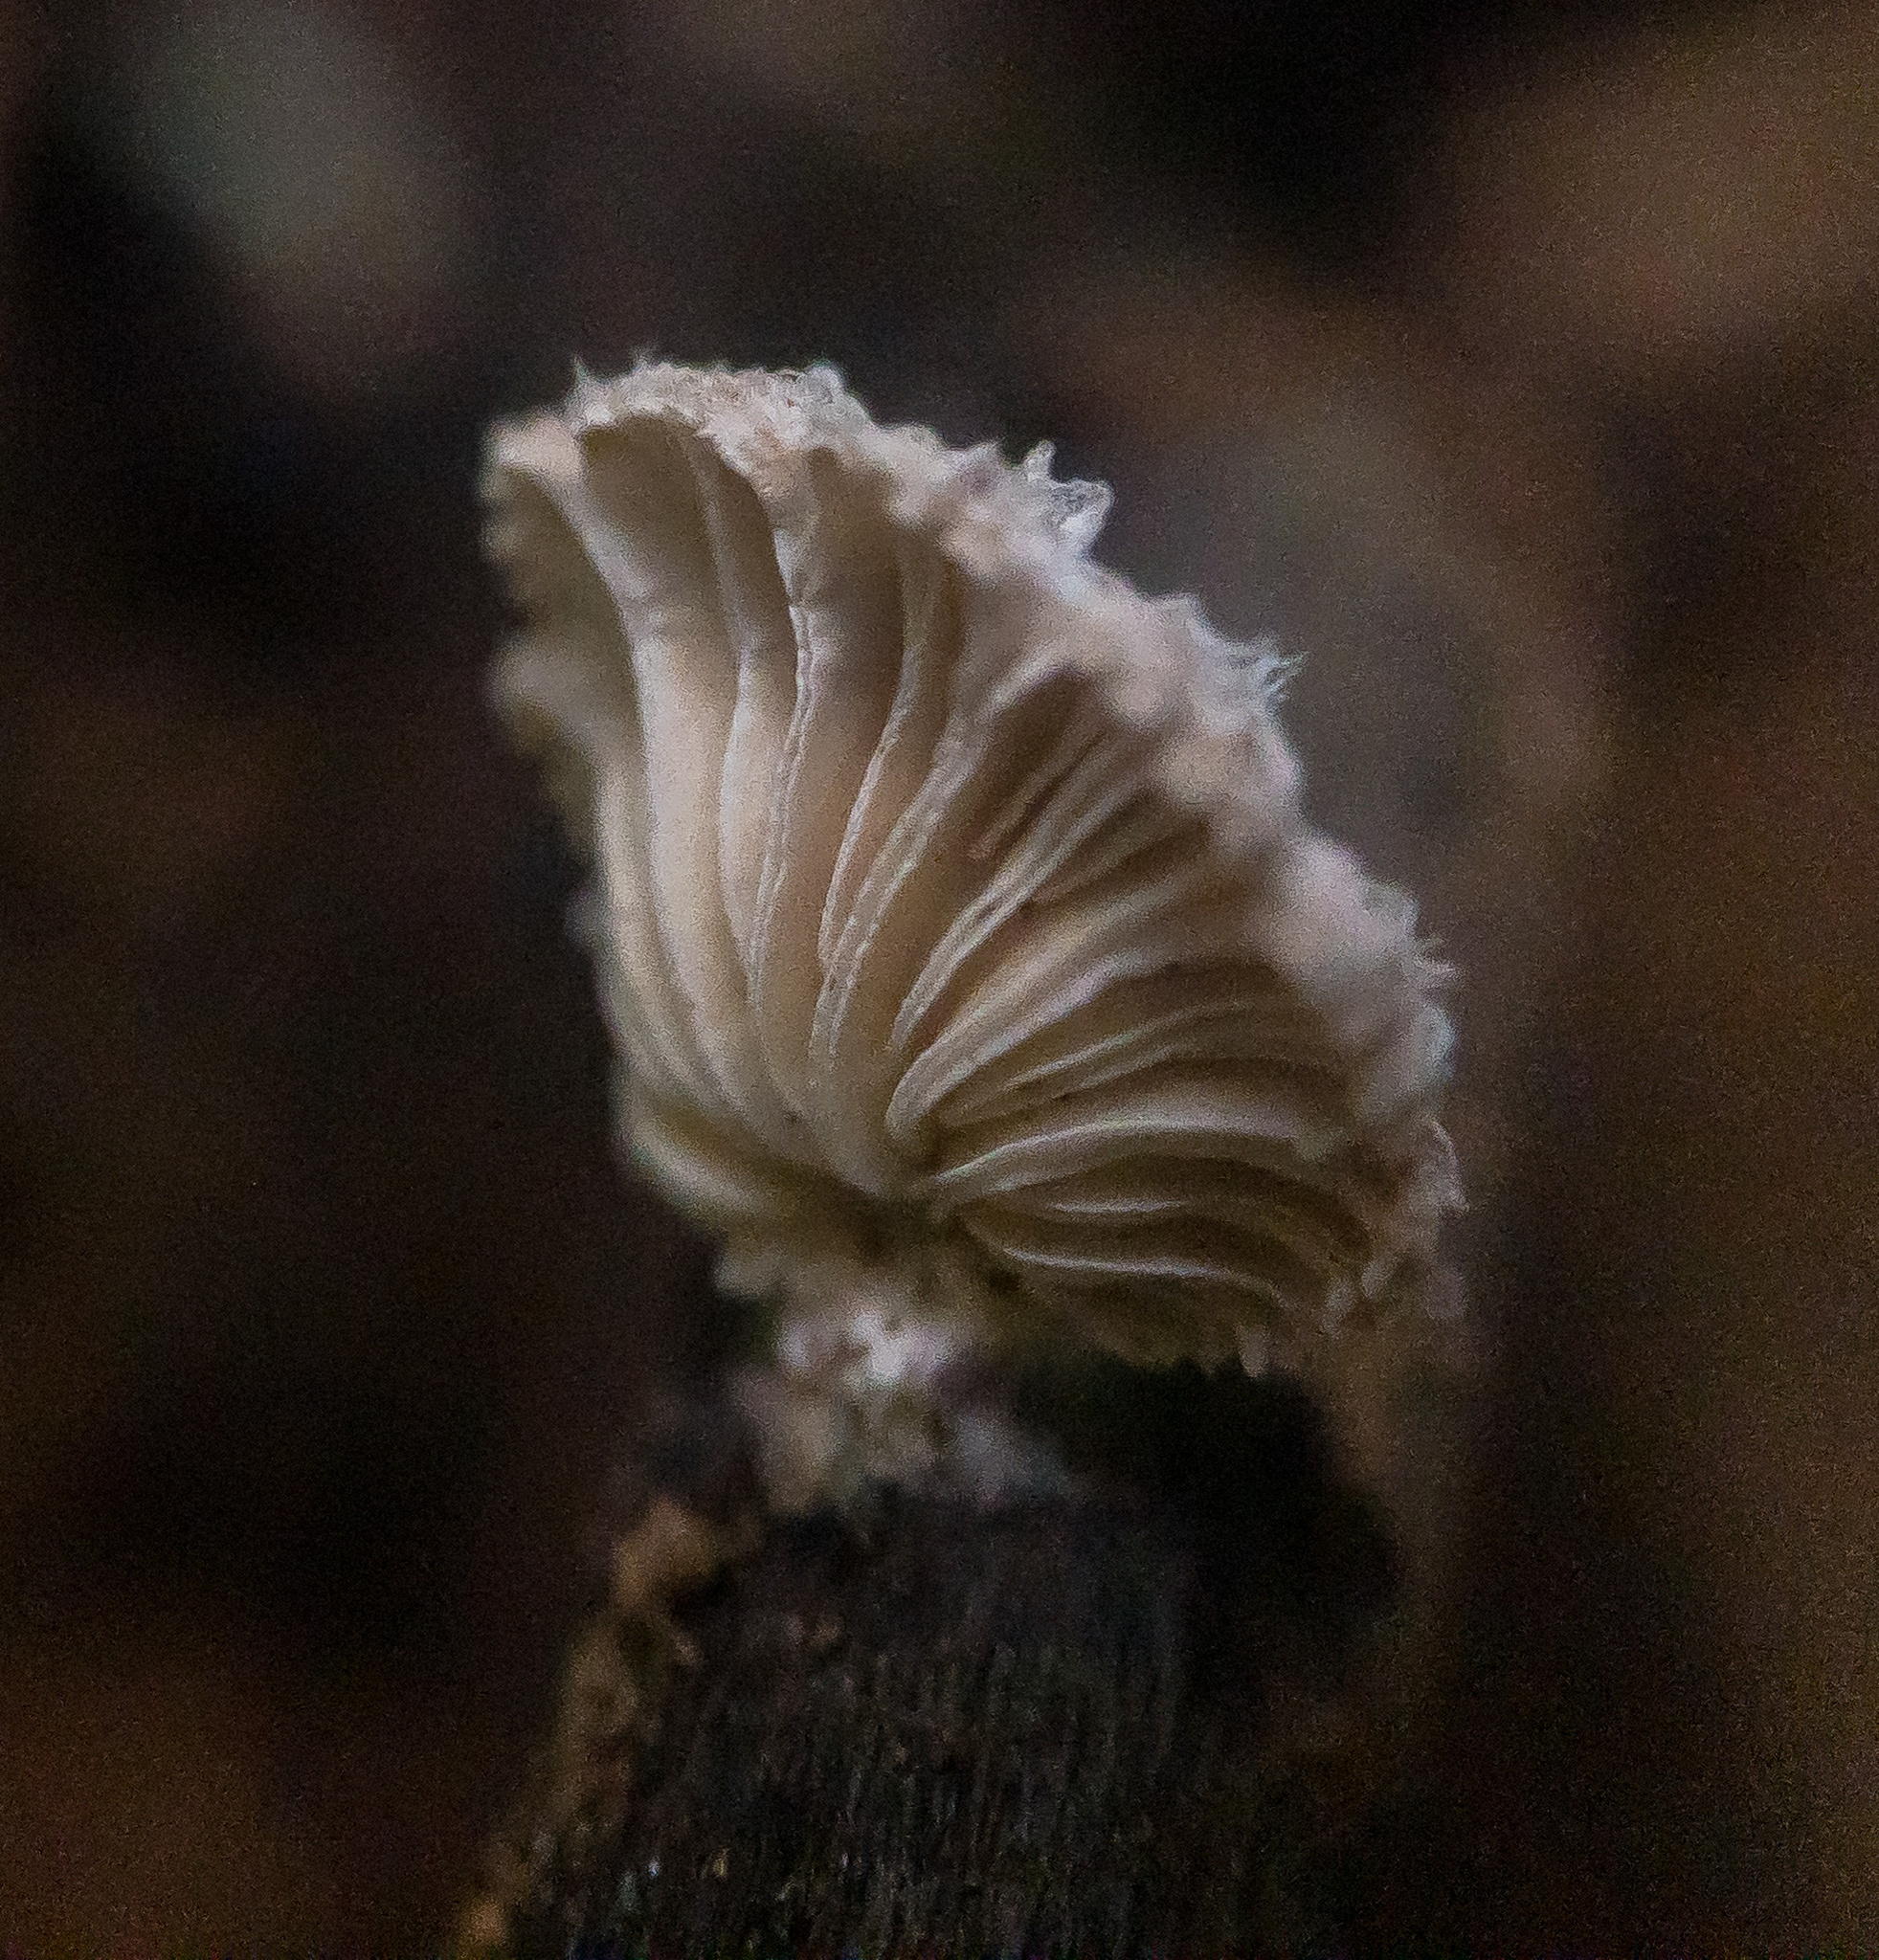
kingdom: Fungi
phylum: Basidiomycota
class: Agaricomycetes
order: Agaricales
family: Schizophyllaceae
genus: Schizophyllum
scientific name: Schizophyllum commune
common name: Common porecrust
